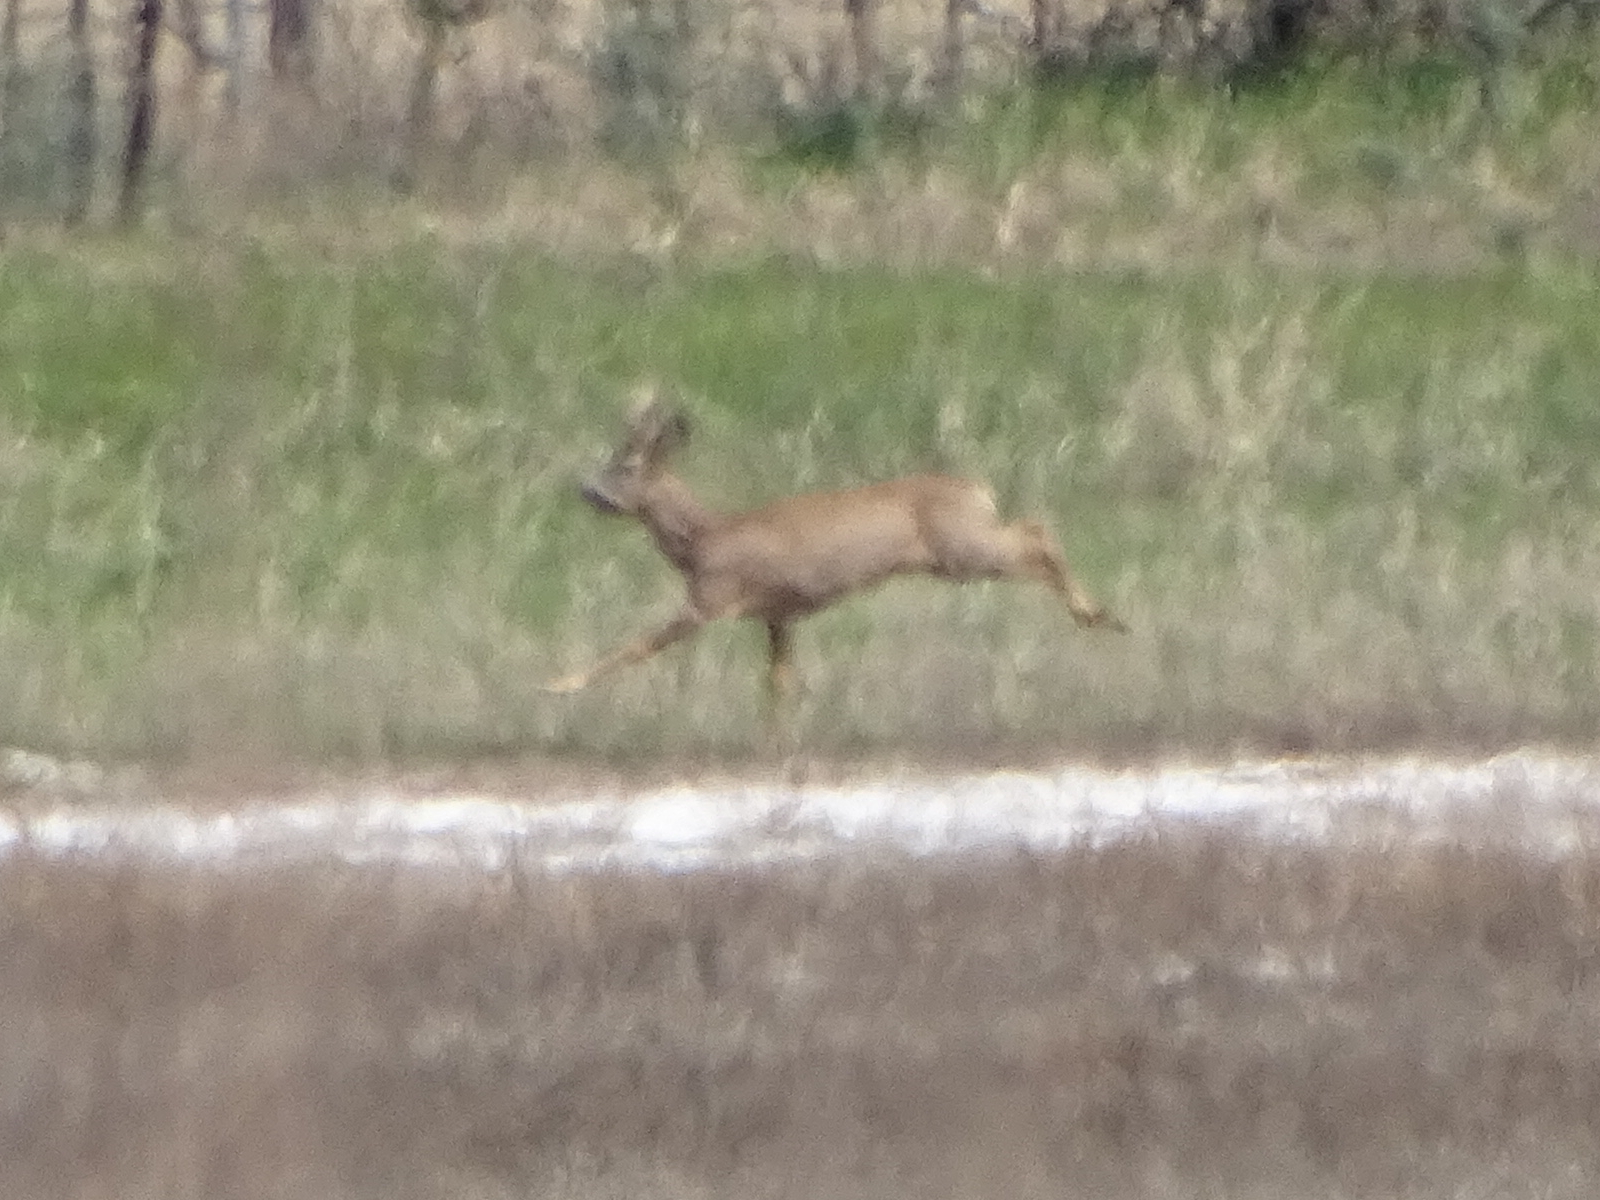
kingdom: Animalia
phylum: Chordata
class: Mammalia
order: Artiodactyla
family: Cervidae
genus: Capreolus
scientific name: Capreolus capreolus
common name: Western roe deer
